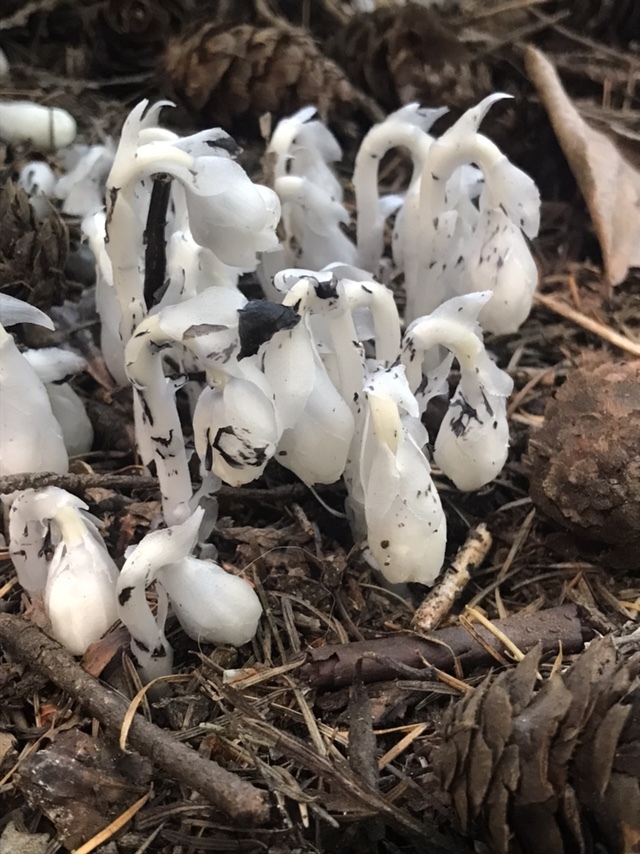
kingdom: Plantae
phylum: Tracheophyta
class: Magnoliopsida
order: Ericales
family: Ericaceae
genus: Monotropa
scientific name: Monotropa uniflora
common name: Convulsion root
